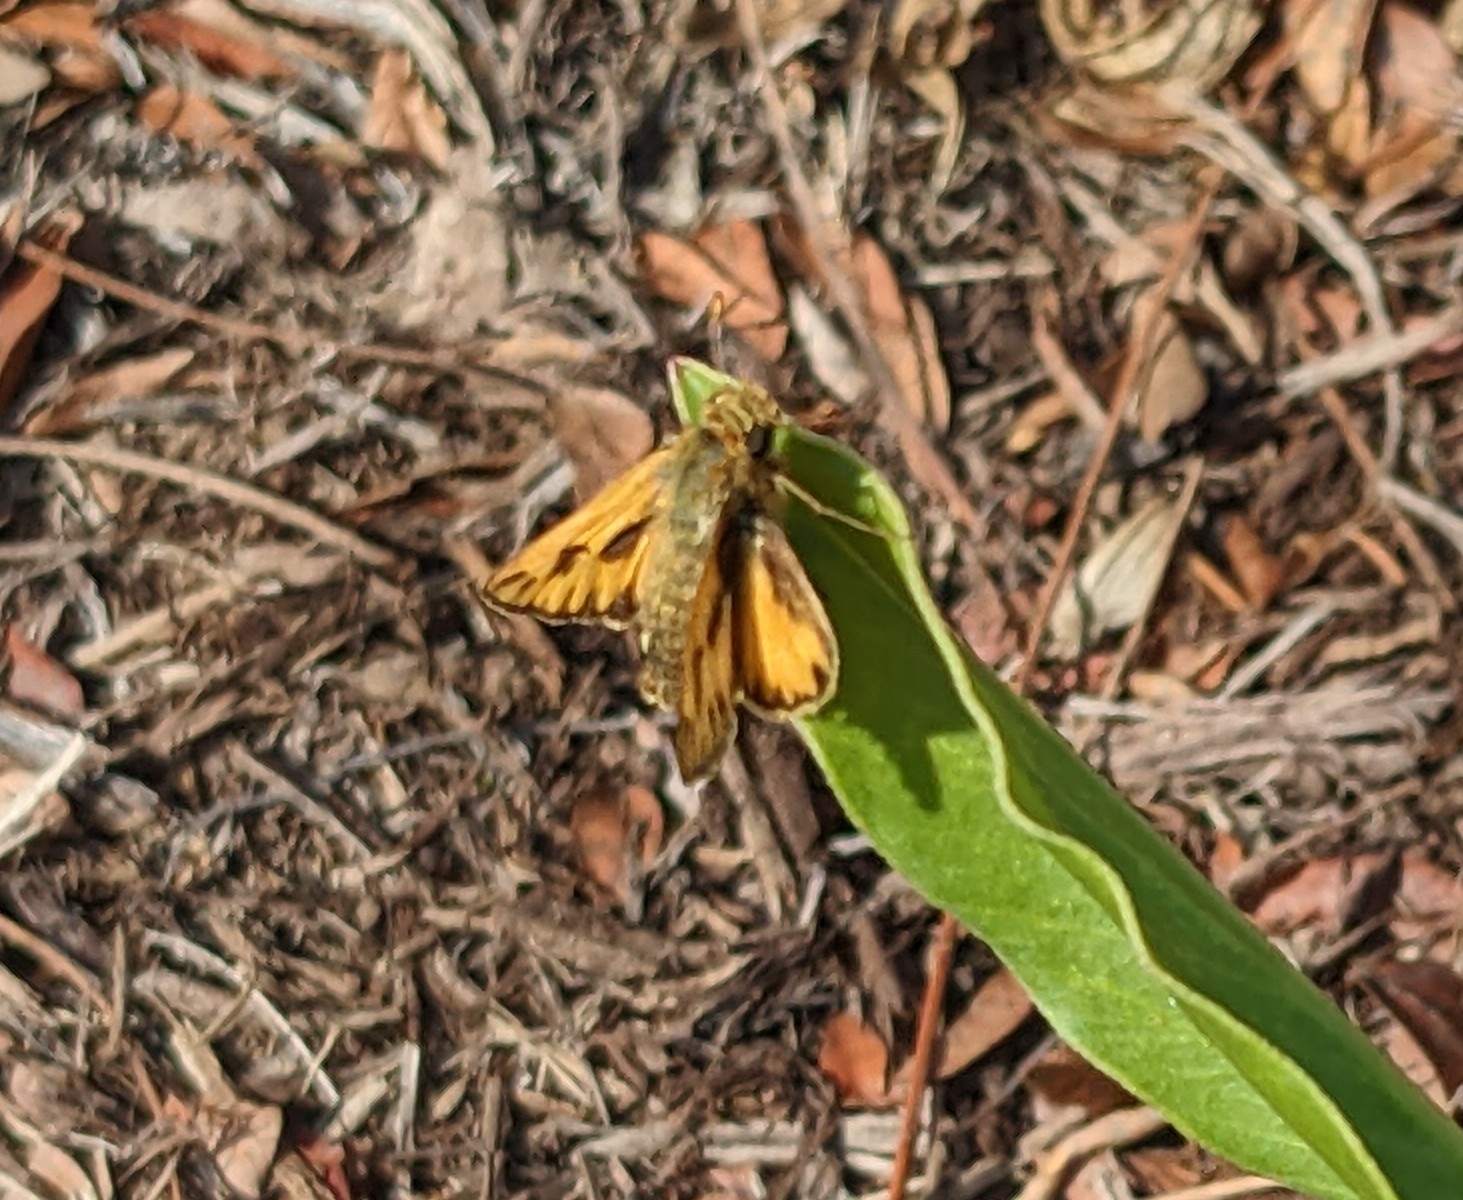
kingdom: Animalia
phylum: Arthropoda
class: Insecta
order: Lepidoptera
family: Hesperiidae
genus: Hylephila
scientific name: Hylephila phyleus
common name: Fiery skipper
